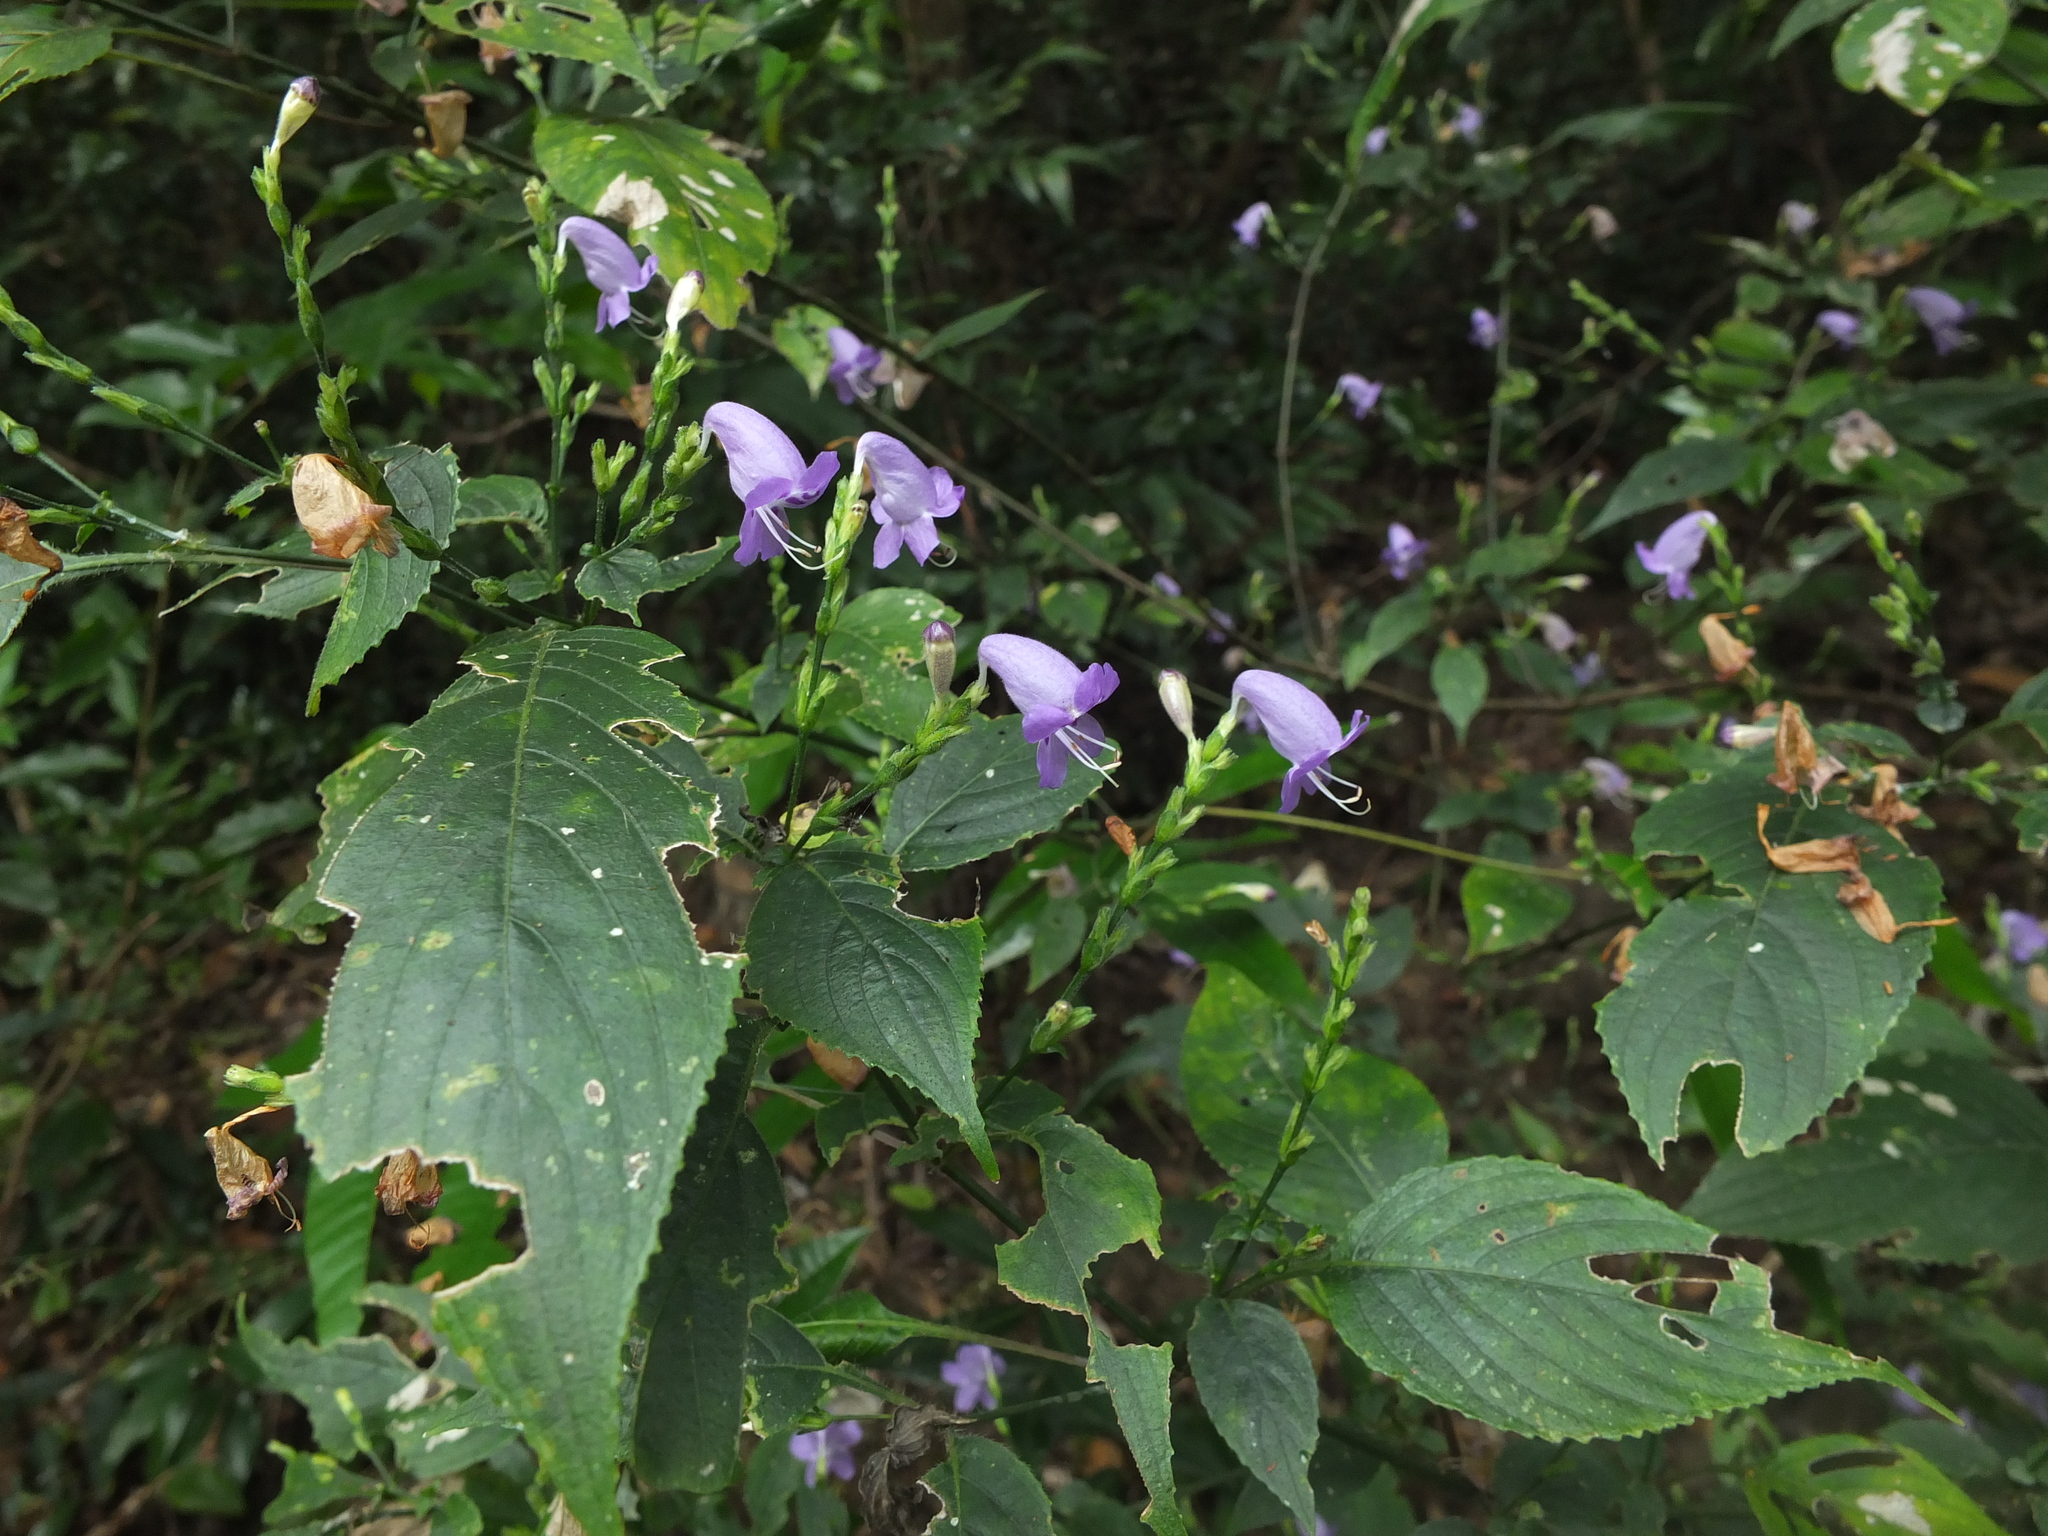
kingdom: Plantae
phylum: Tracheophyta
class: Magnoliopsida
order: Lamiales
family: Acanthaceae
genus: Strobilanthes
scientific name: Strobilanthes cordifolia
